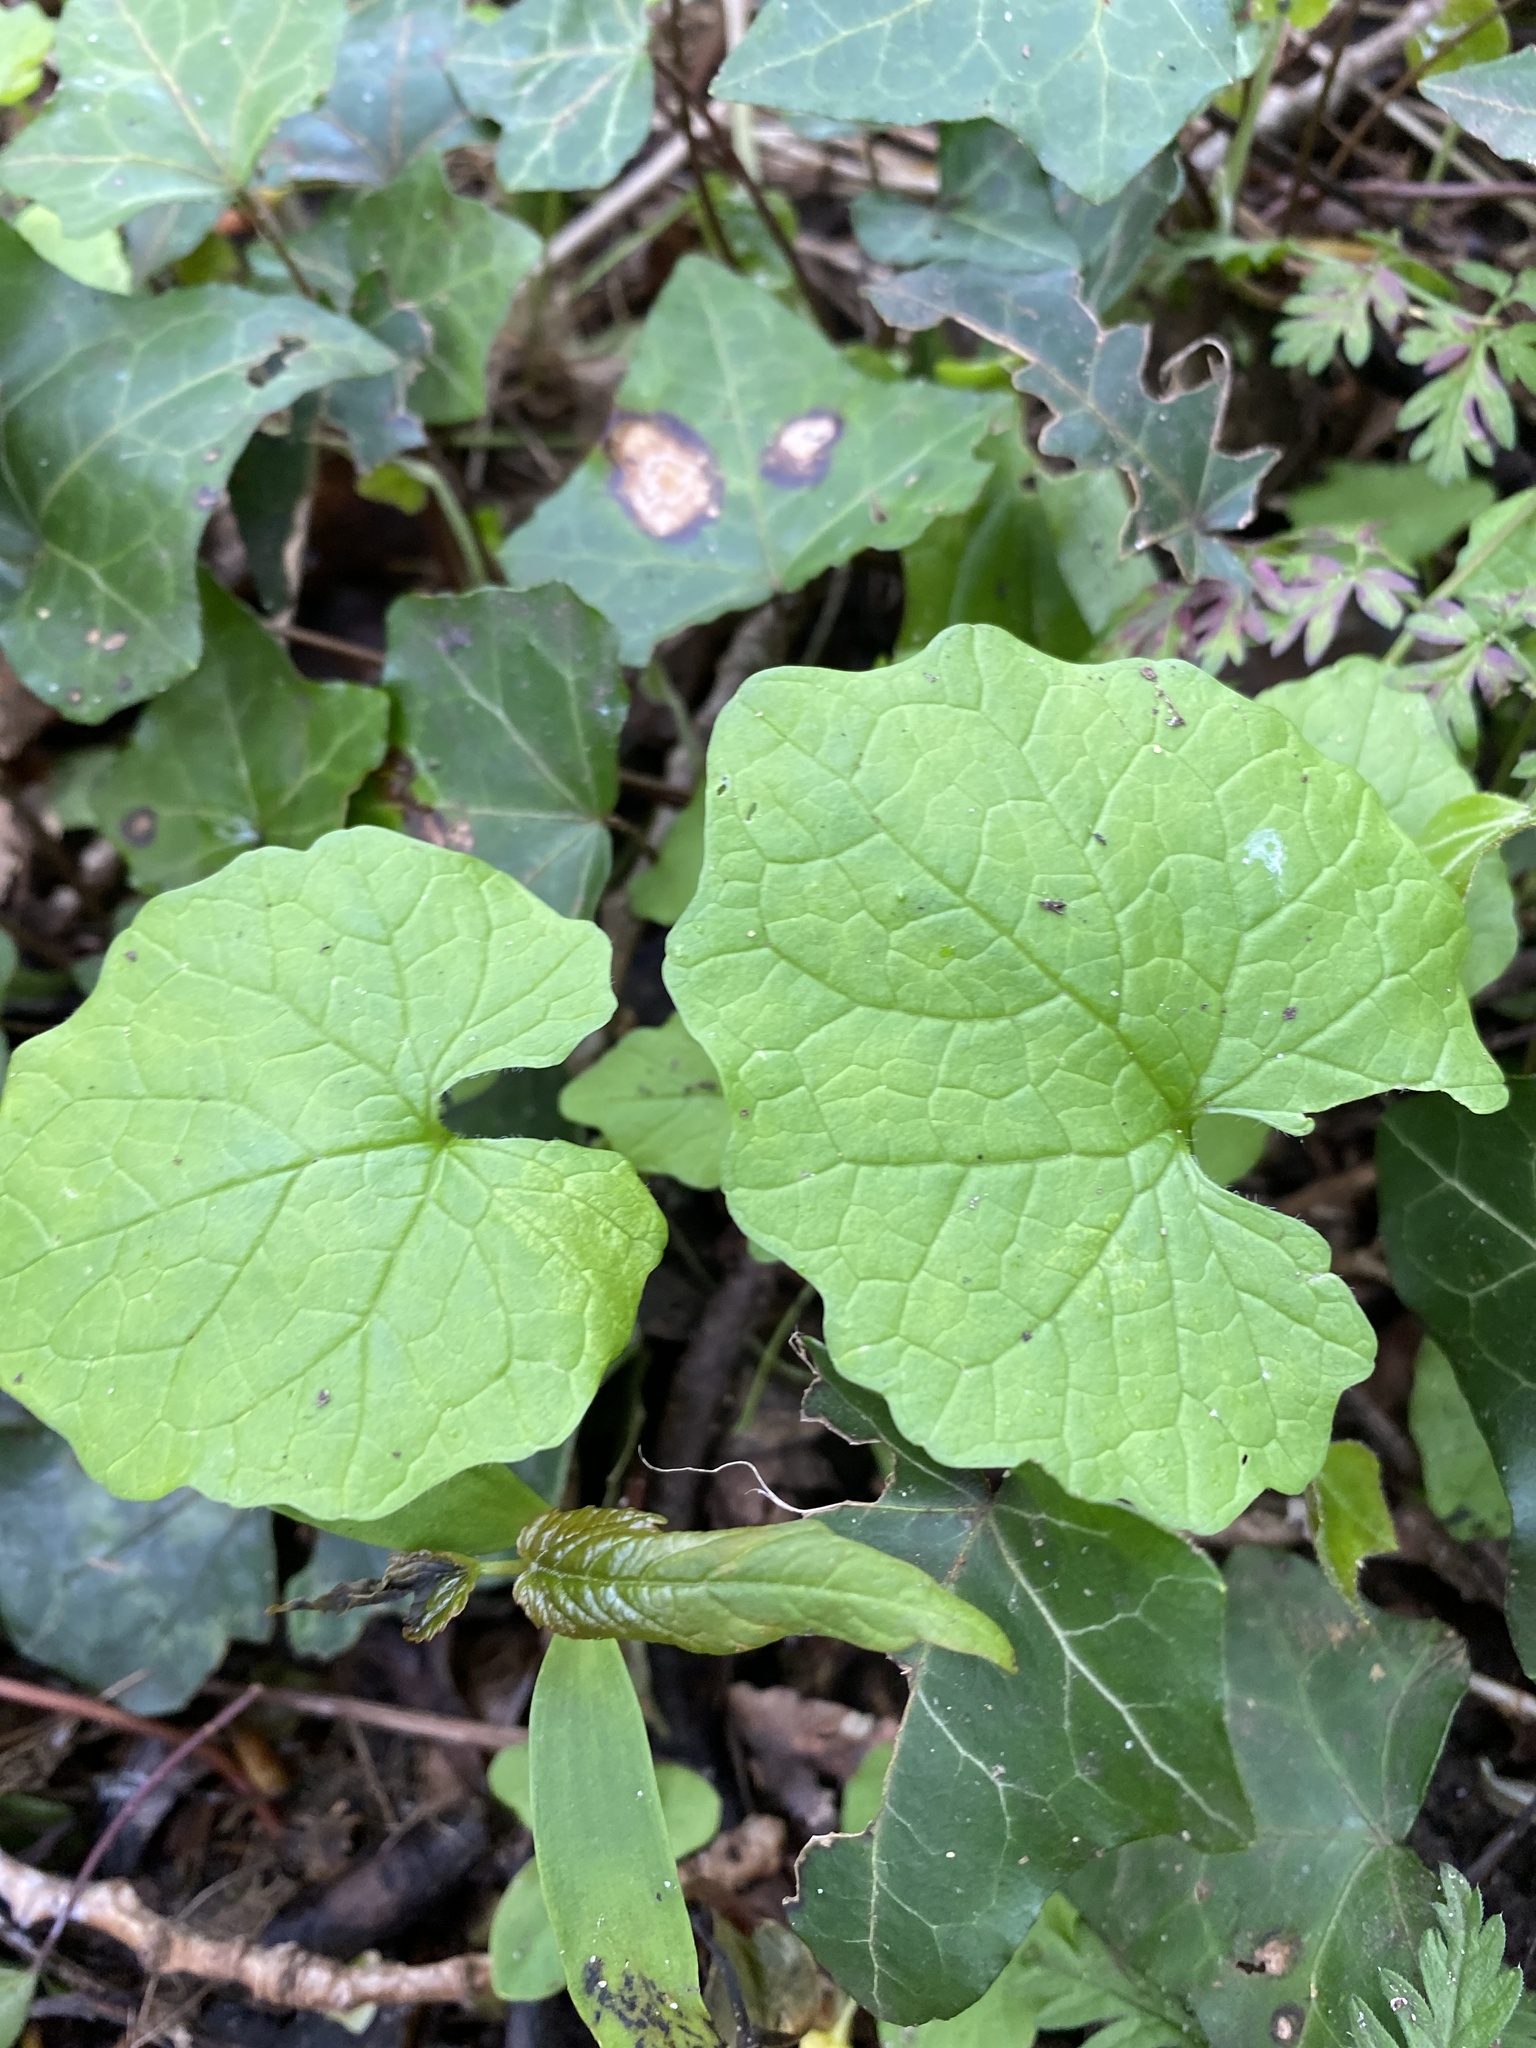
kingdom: Plantae
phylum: Tracheophyta
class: Magnoliopsida
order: Brassicales
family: Brassicaceae
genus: Alliaria
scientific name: Alliaria petiolata
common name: Garlic mustard
